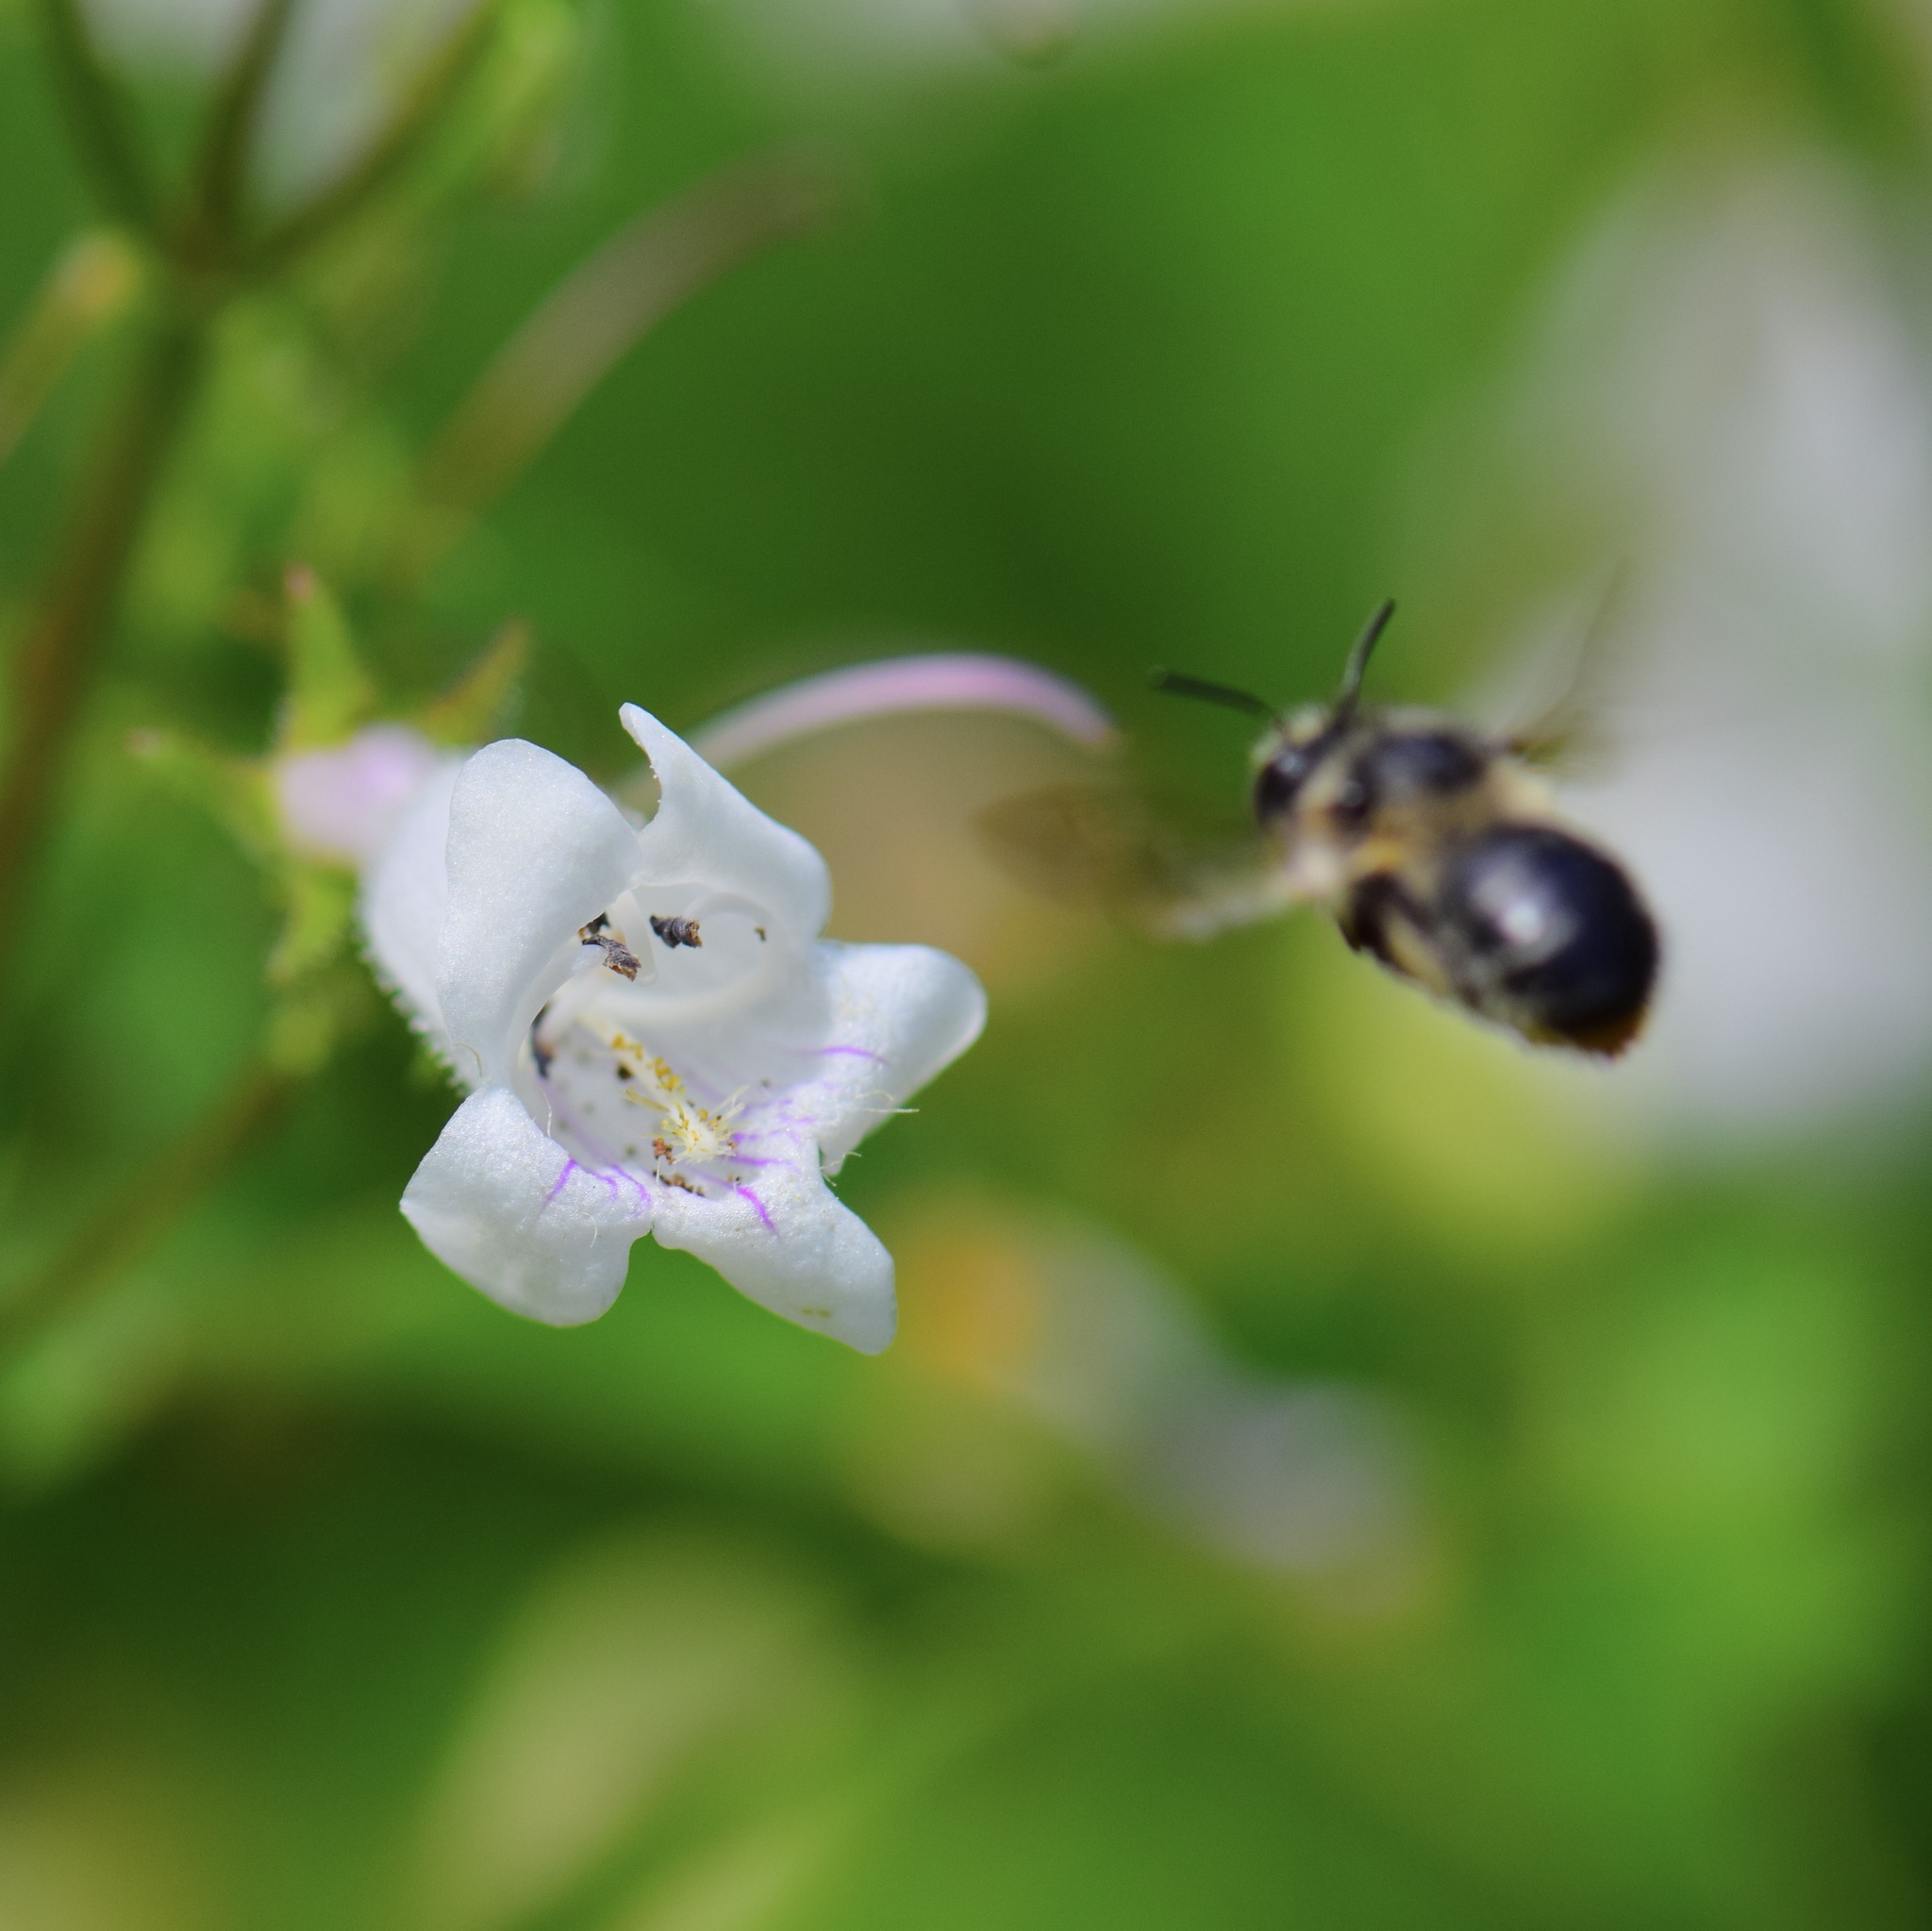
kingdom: Animalia
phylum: Arthropoda
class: Insecta
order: Hymenoptera
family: Apidae
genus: Anthophora
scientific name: Anthophora terminalis
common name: Orange-tipped wood-digger bee
